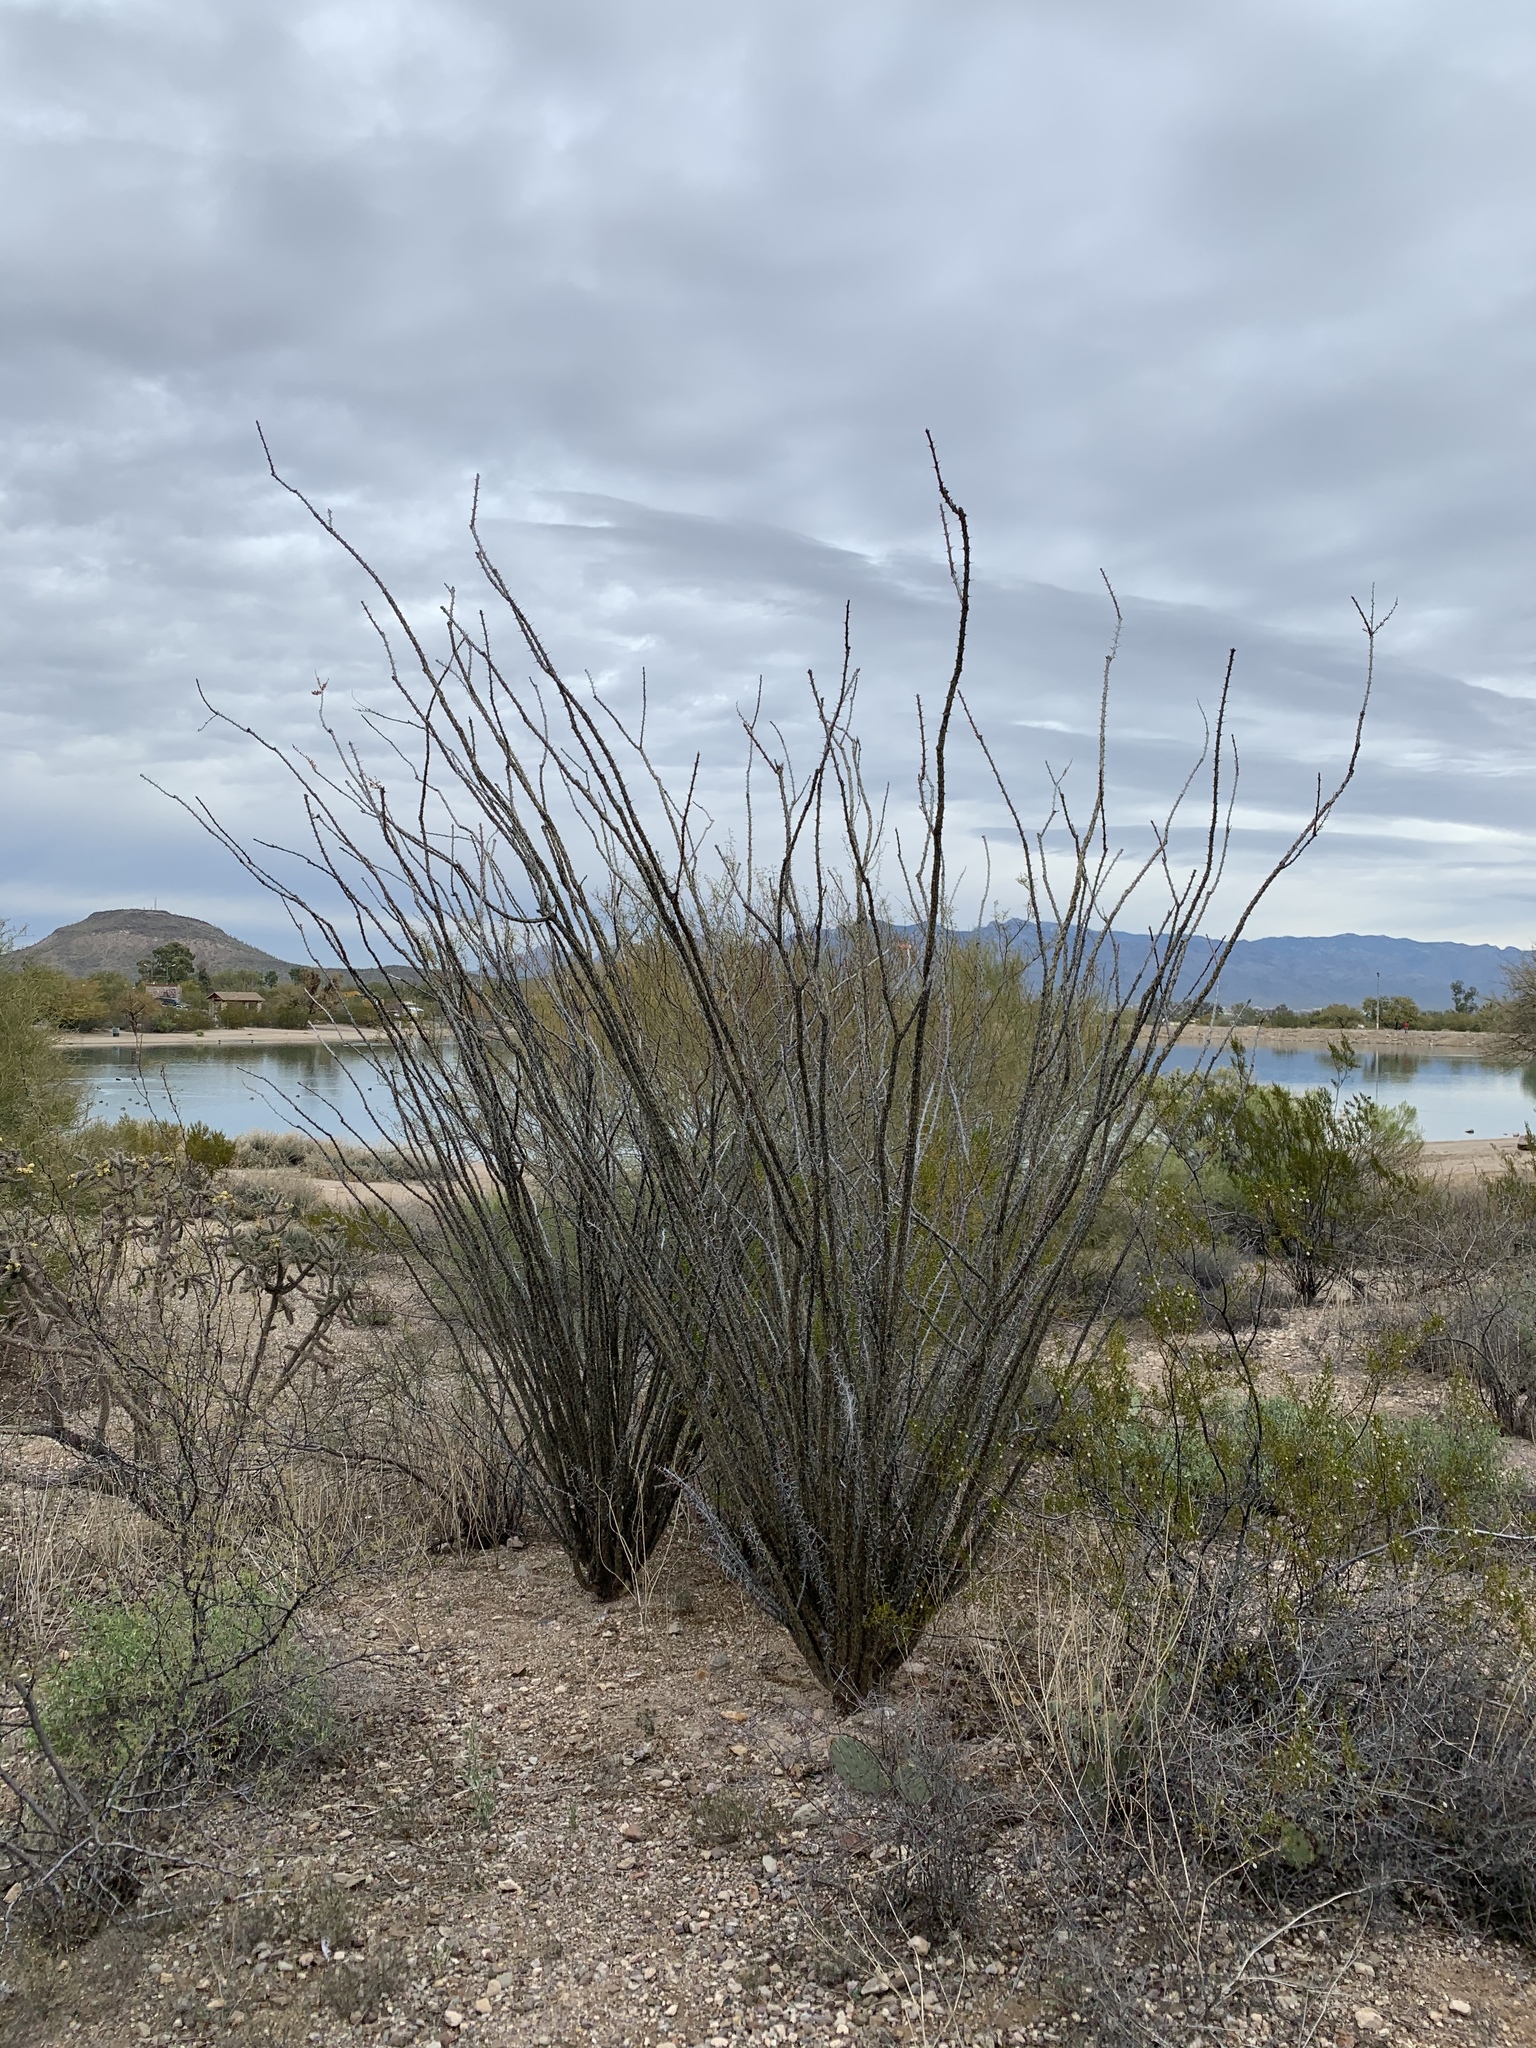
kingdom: Plantae
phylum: Tracheophyta
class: Magnoliopsida
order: Ericales
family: Fouquieriaceae
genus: Fouquieria
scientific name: Fouquieria splendens
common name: Vine-cactus
